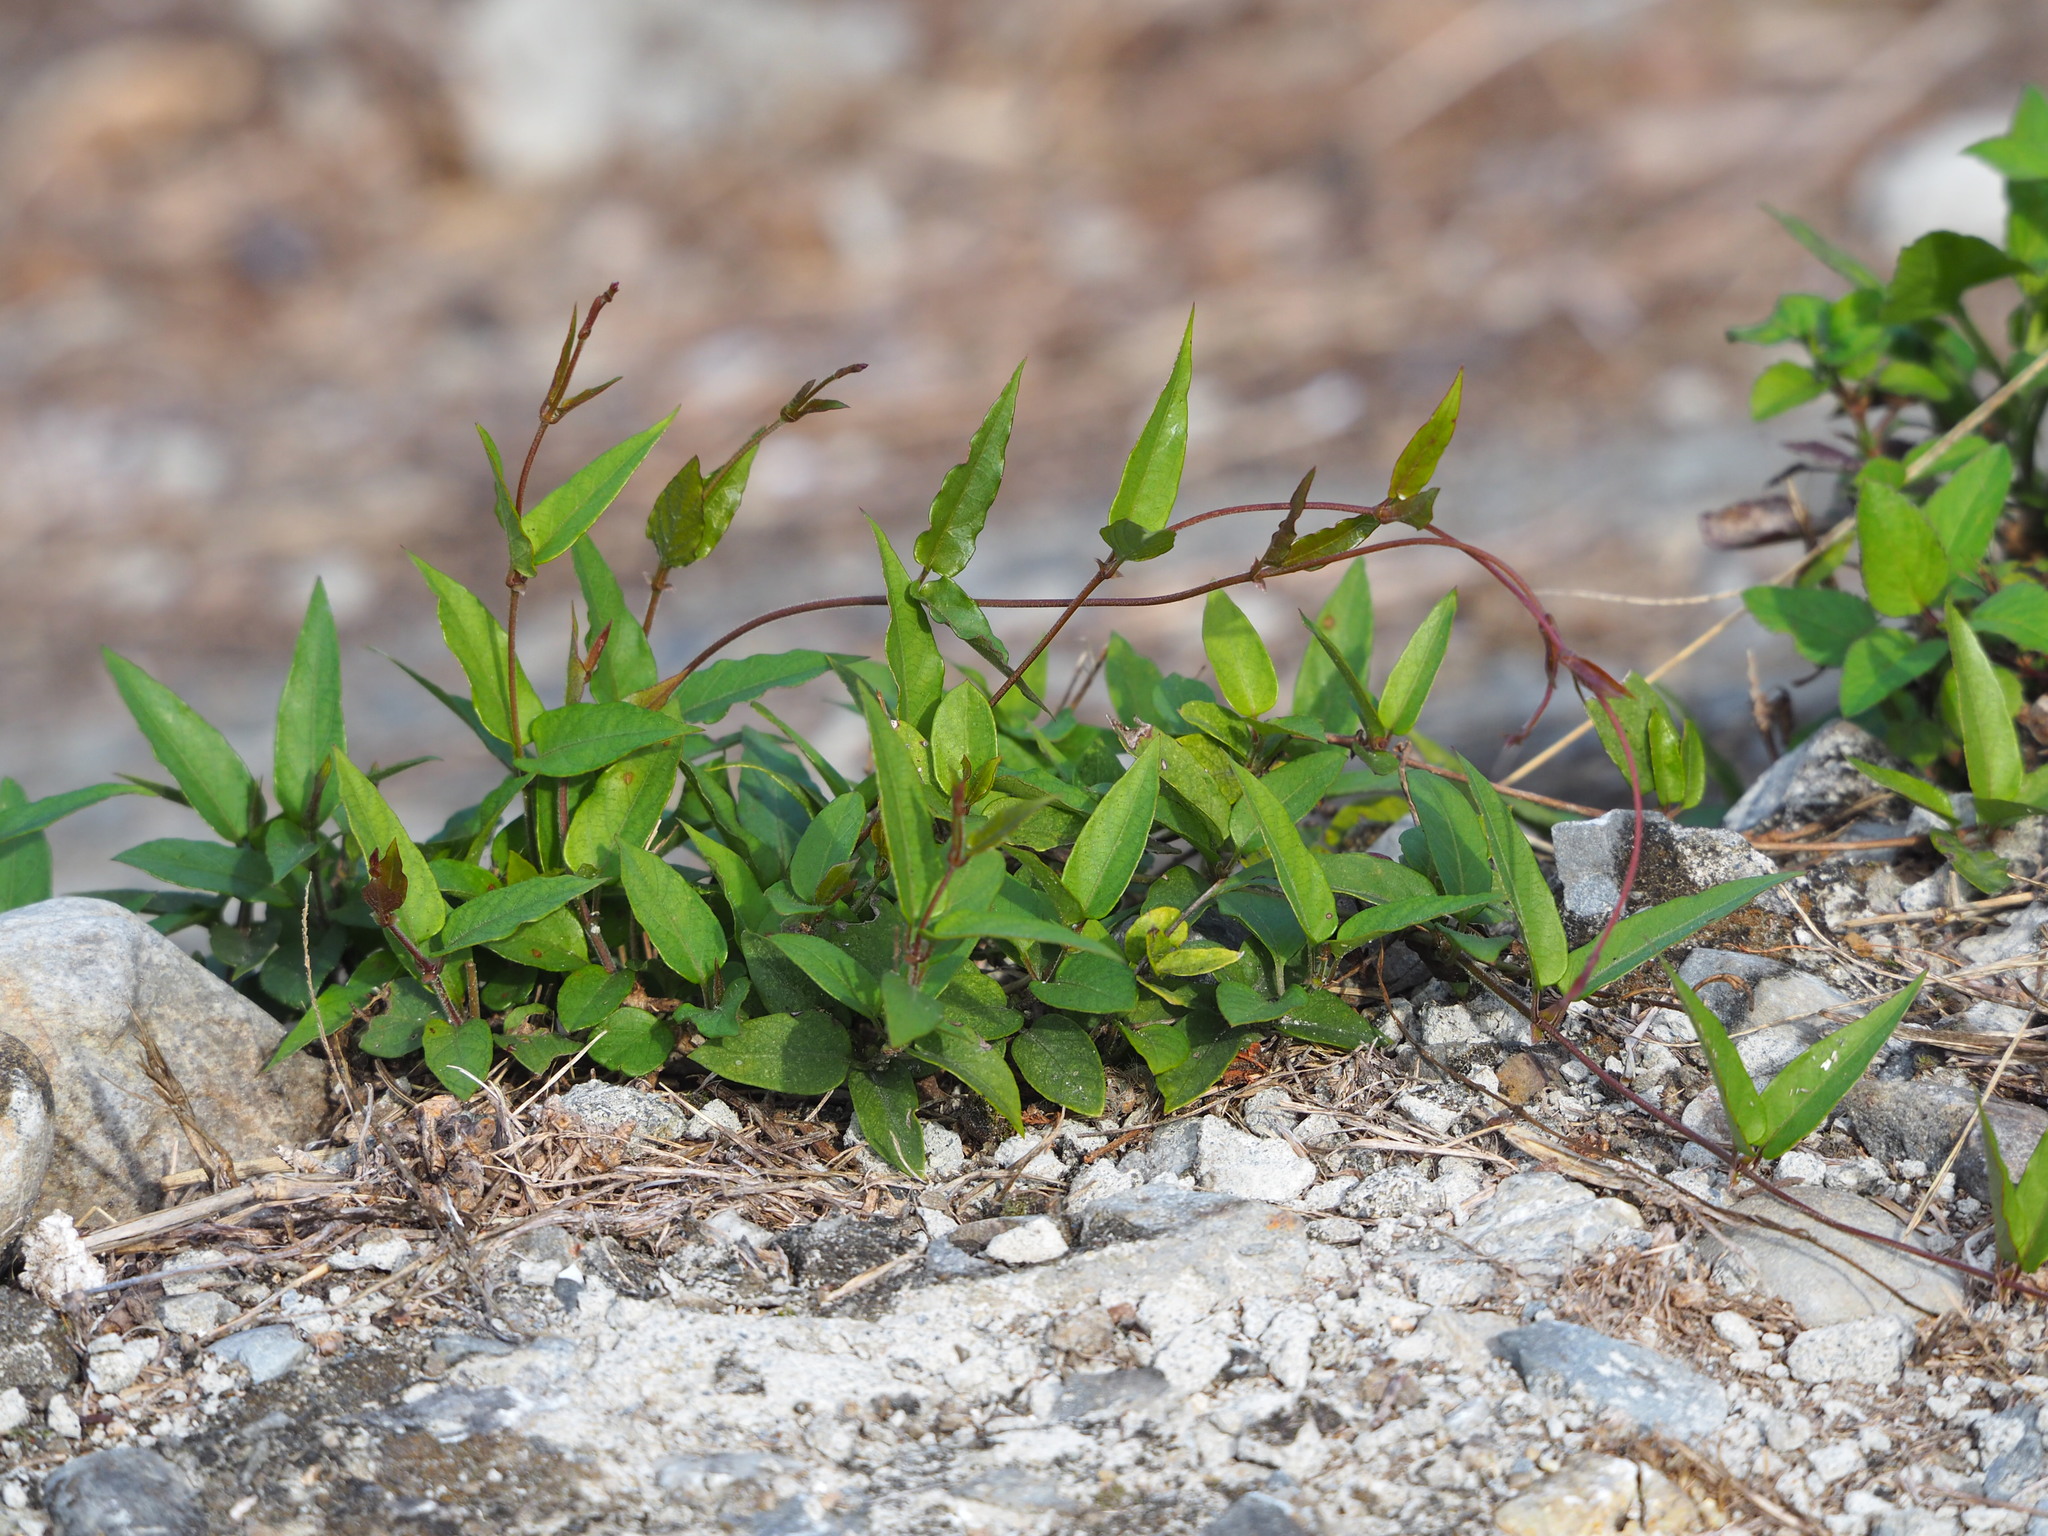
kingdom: Plantae
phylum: Tracheophyta
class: Magnoliopsida
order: Gentianales
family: Rubiaceae
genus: Paederia
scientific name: Paederia foetida
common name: Stinkvine
